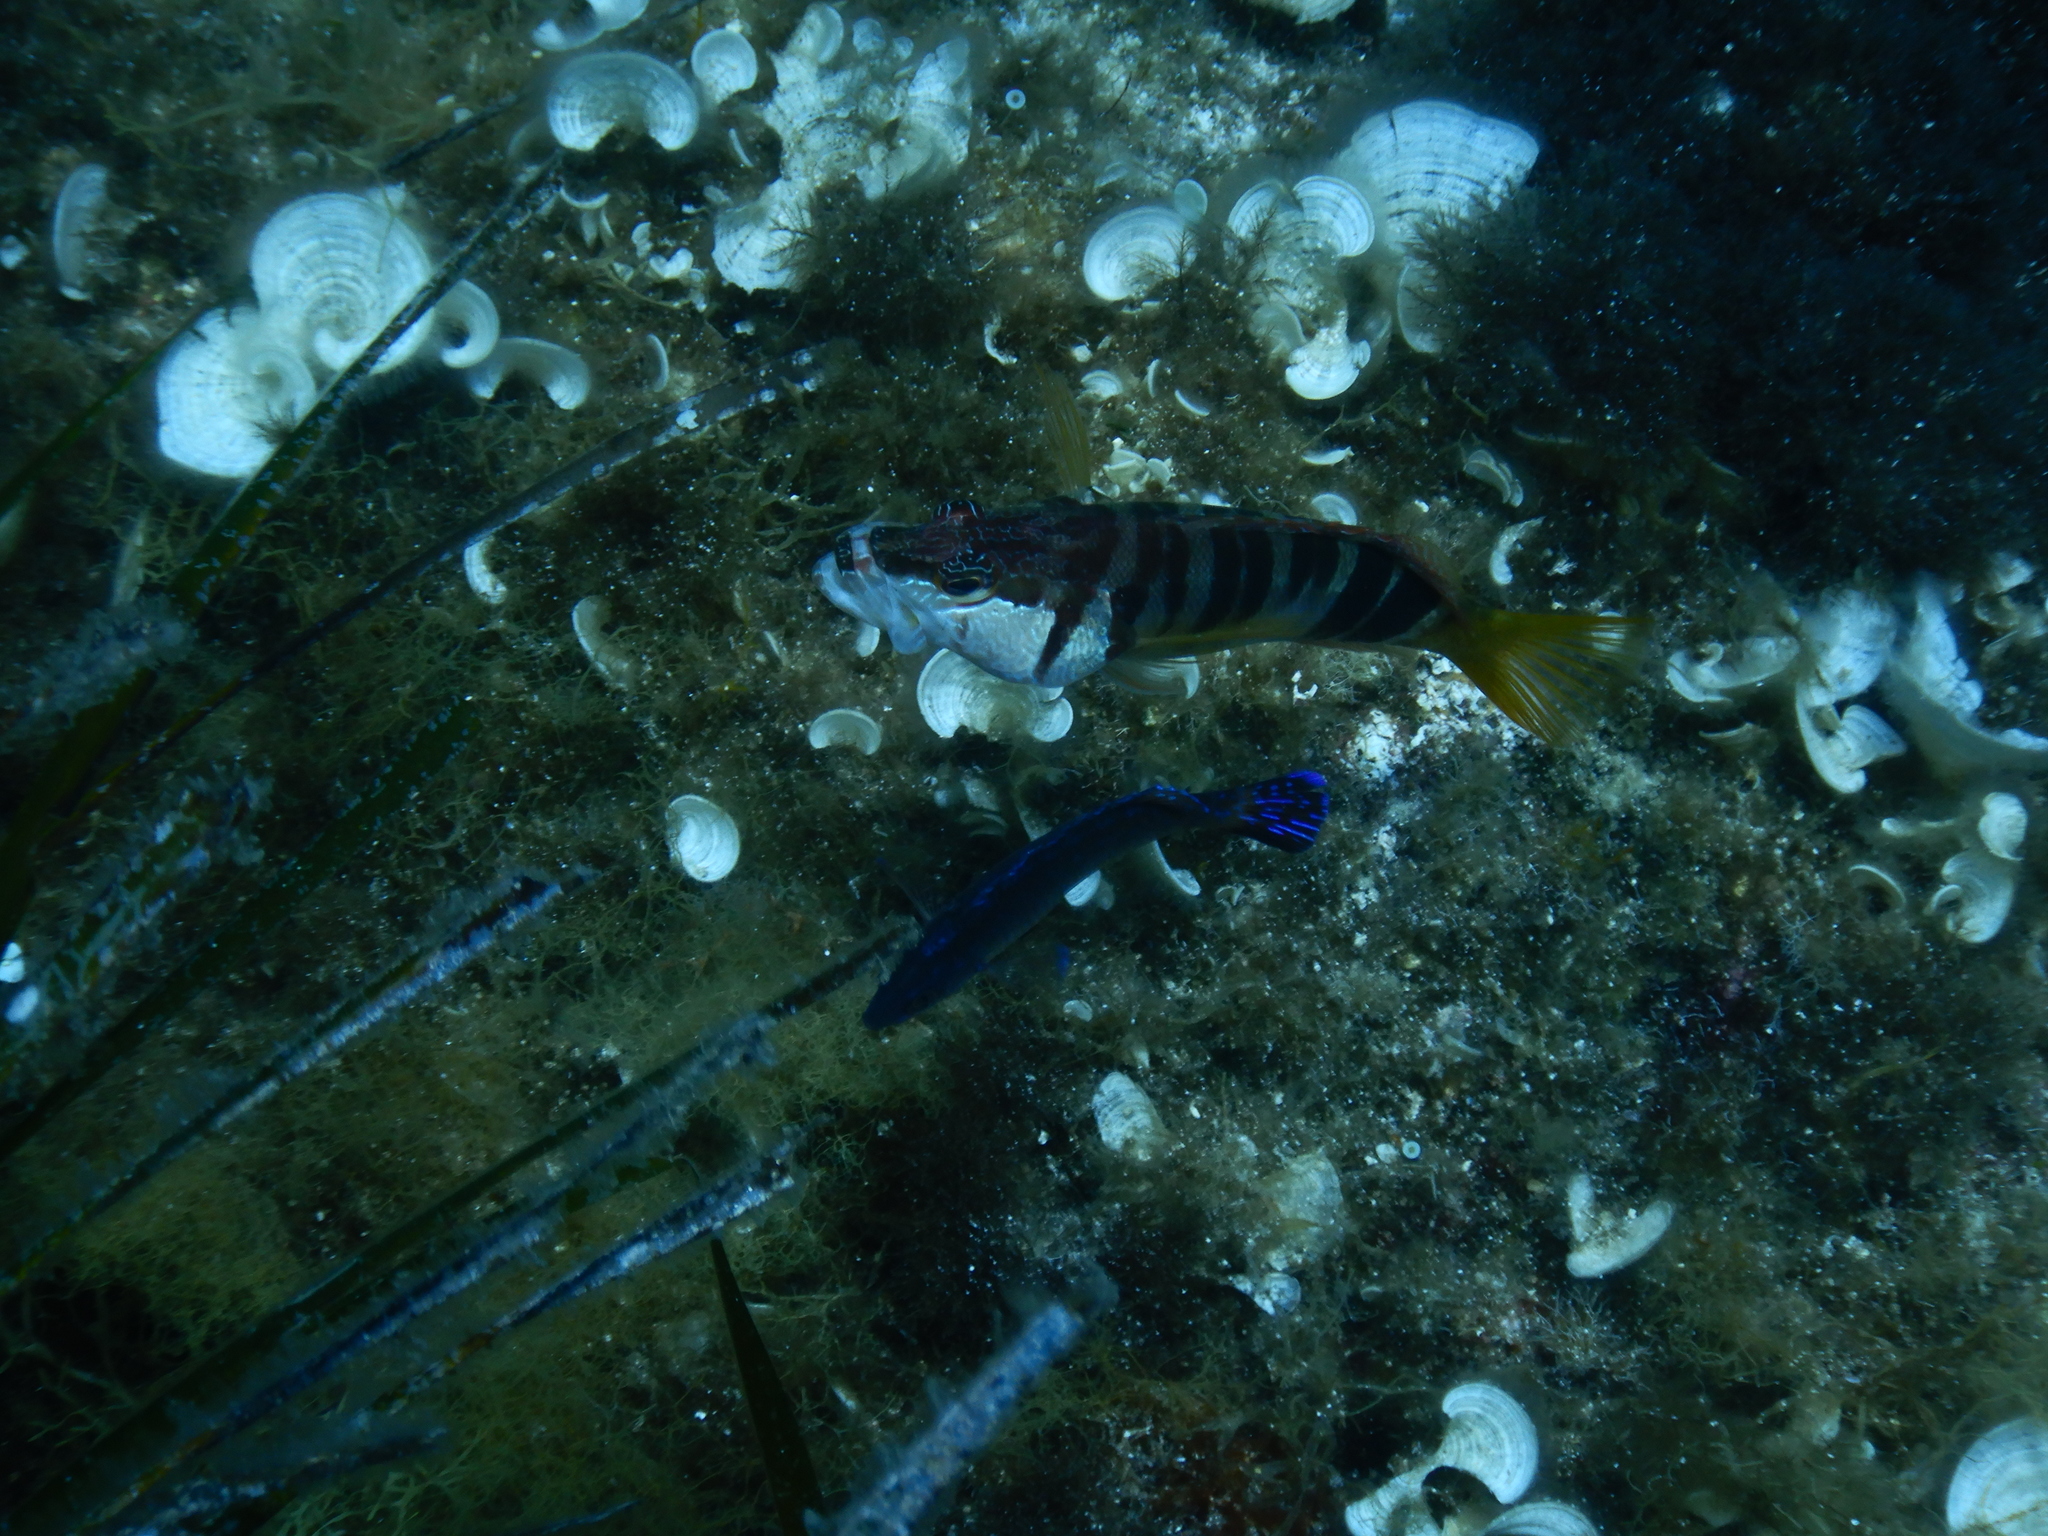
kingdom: Animalia
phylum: Chordata
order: Perciformes
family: Serranidae
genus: Serranus
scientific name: Serranus scriba
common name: Painted comber
